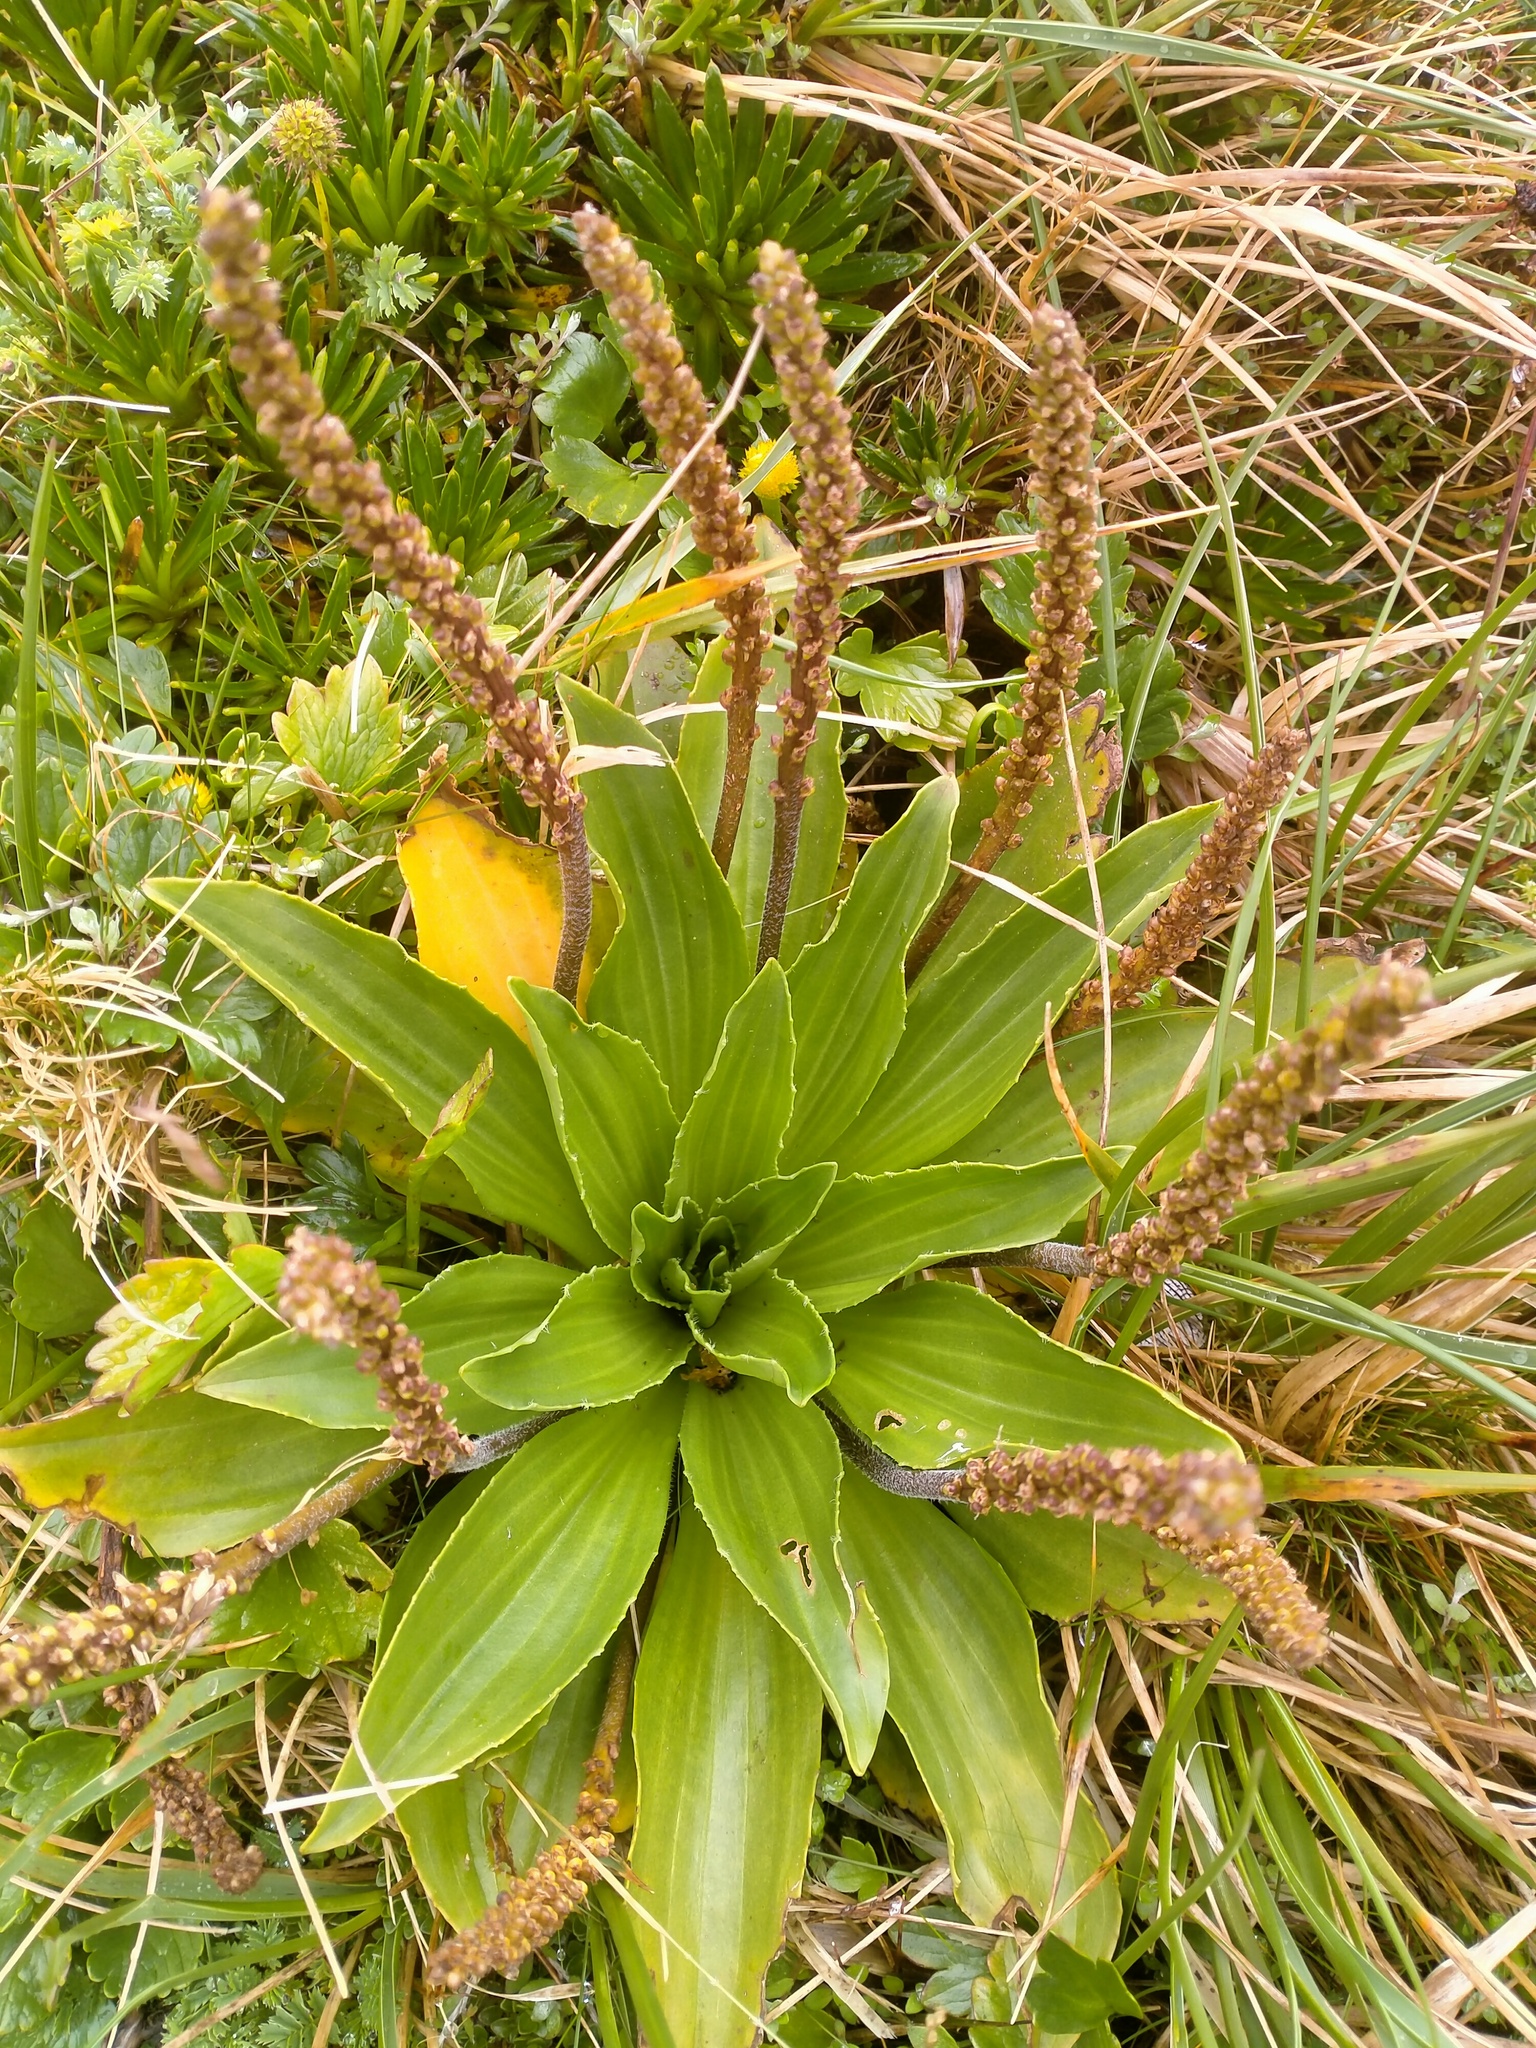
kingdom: Plantae
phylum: Tracheophyta
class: Magnoliopsida
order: Lamiales
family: Plantaginaceae
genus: Plantago
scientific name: Plantago aucklandica
